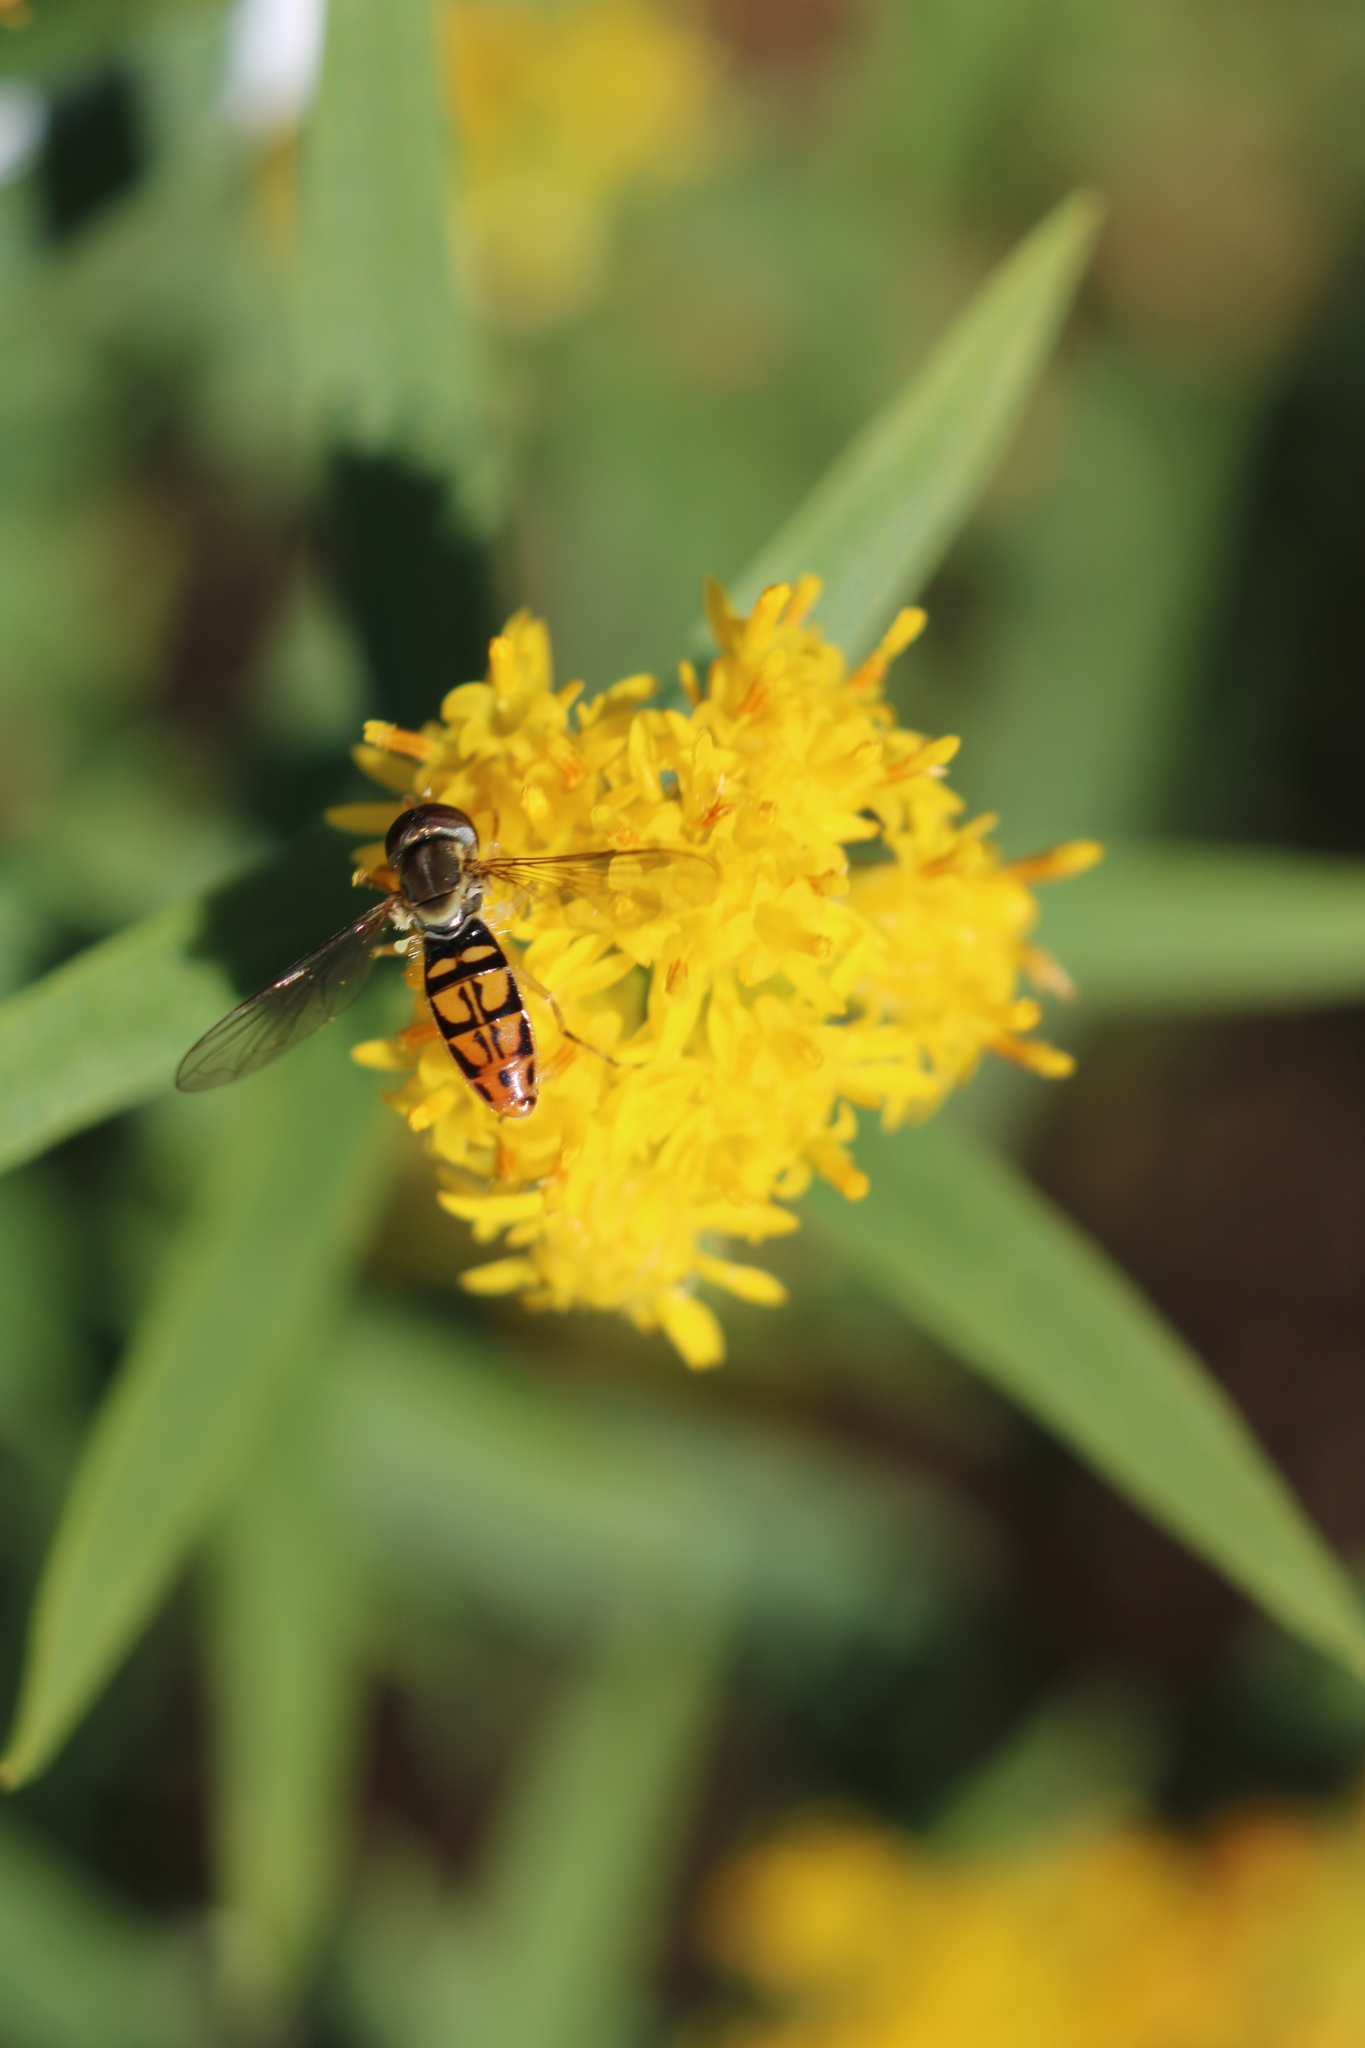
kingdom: Animalia
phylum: Arthropoda
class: Insecta
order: Diptera
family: Syrphidae
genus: Toxomerus
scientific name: Toxomerus marginatus
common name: Syrphid fly
